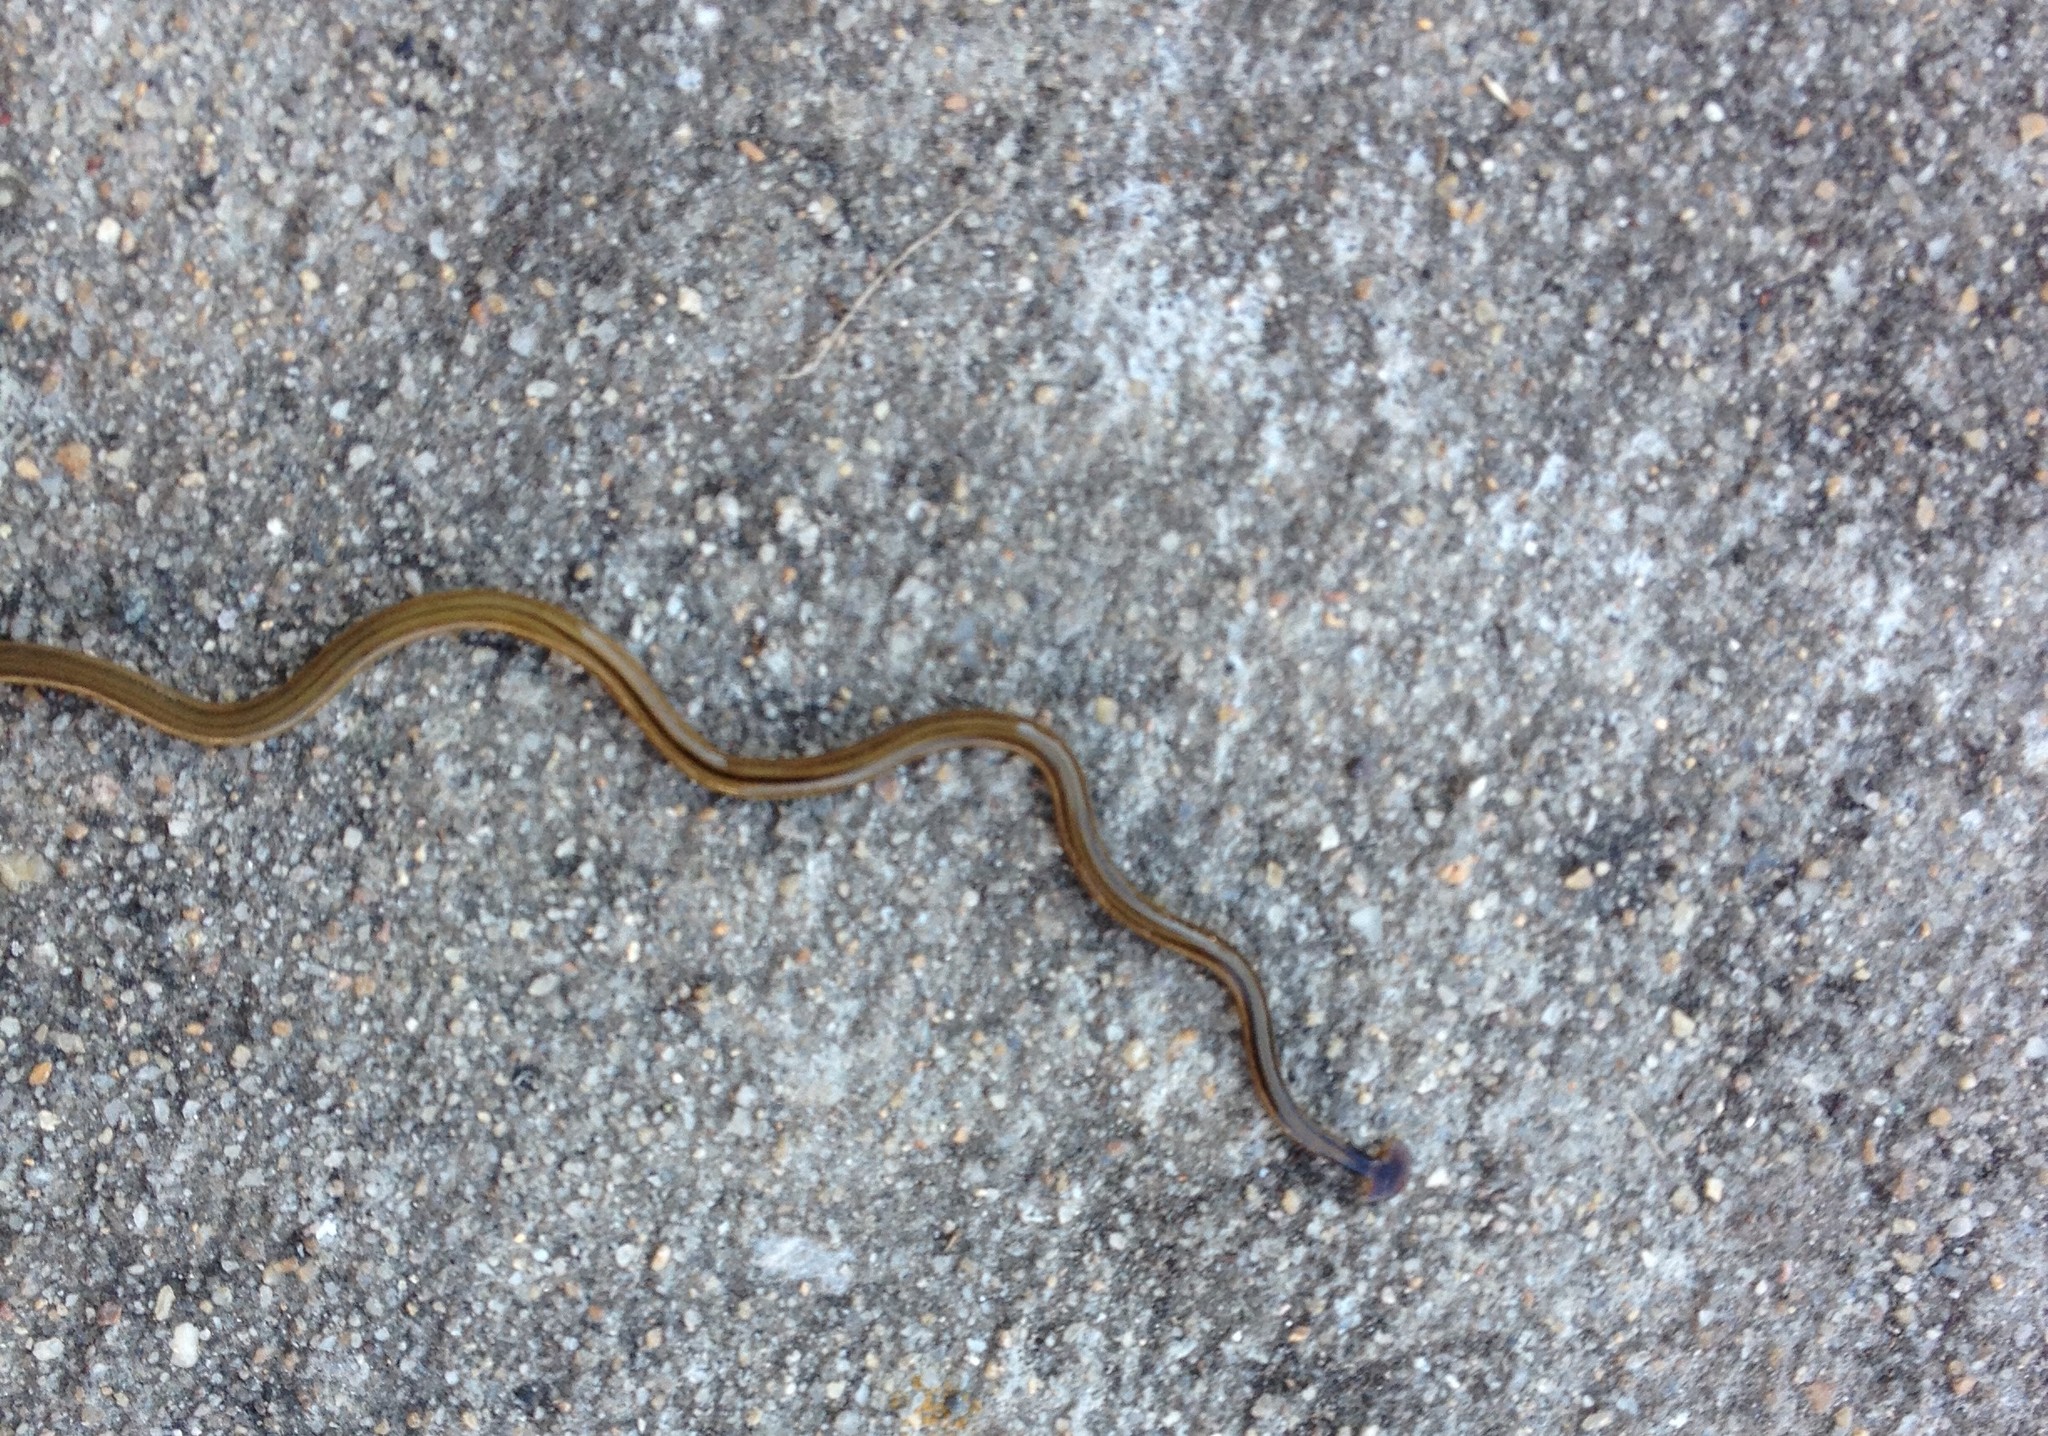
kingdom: Animalia
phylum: Platyhelminthes
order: Tricladida
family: Geoplanidae
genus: Bipalium
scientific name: Bipalium kewense
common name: Hammerhead flatworm
